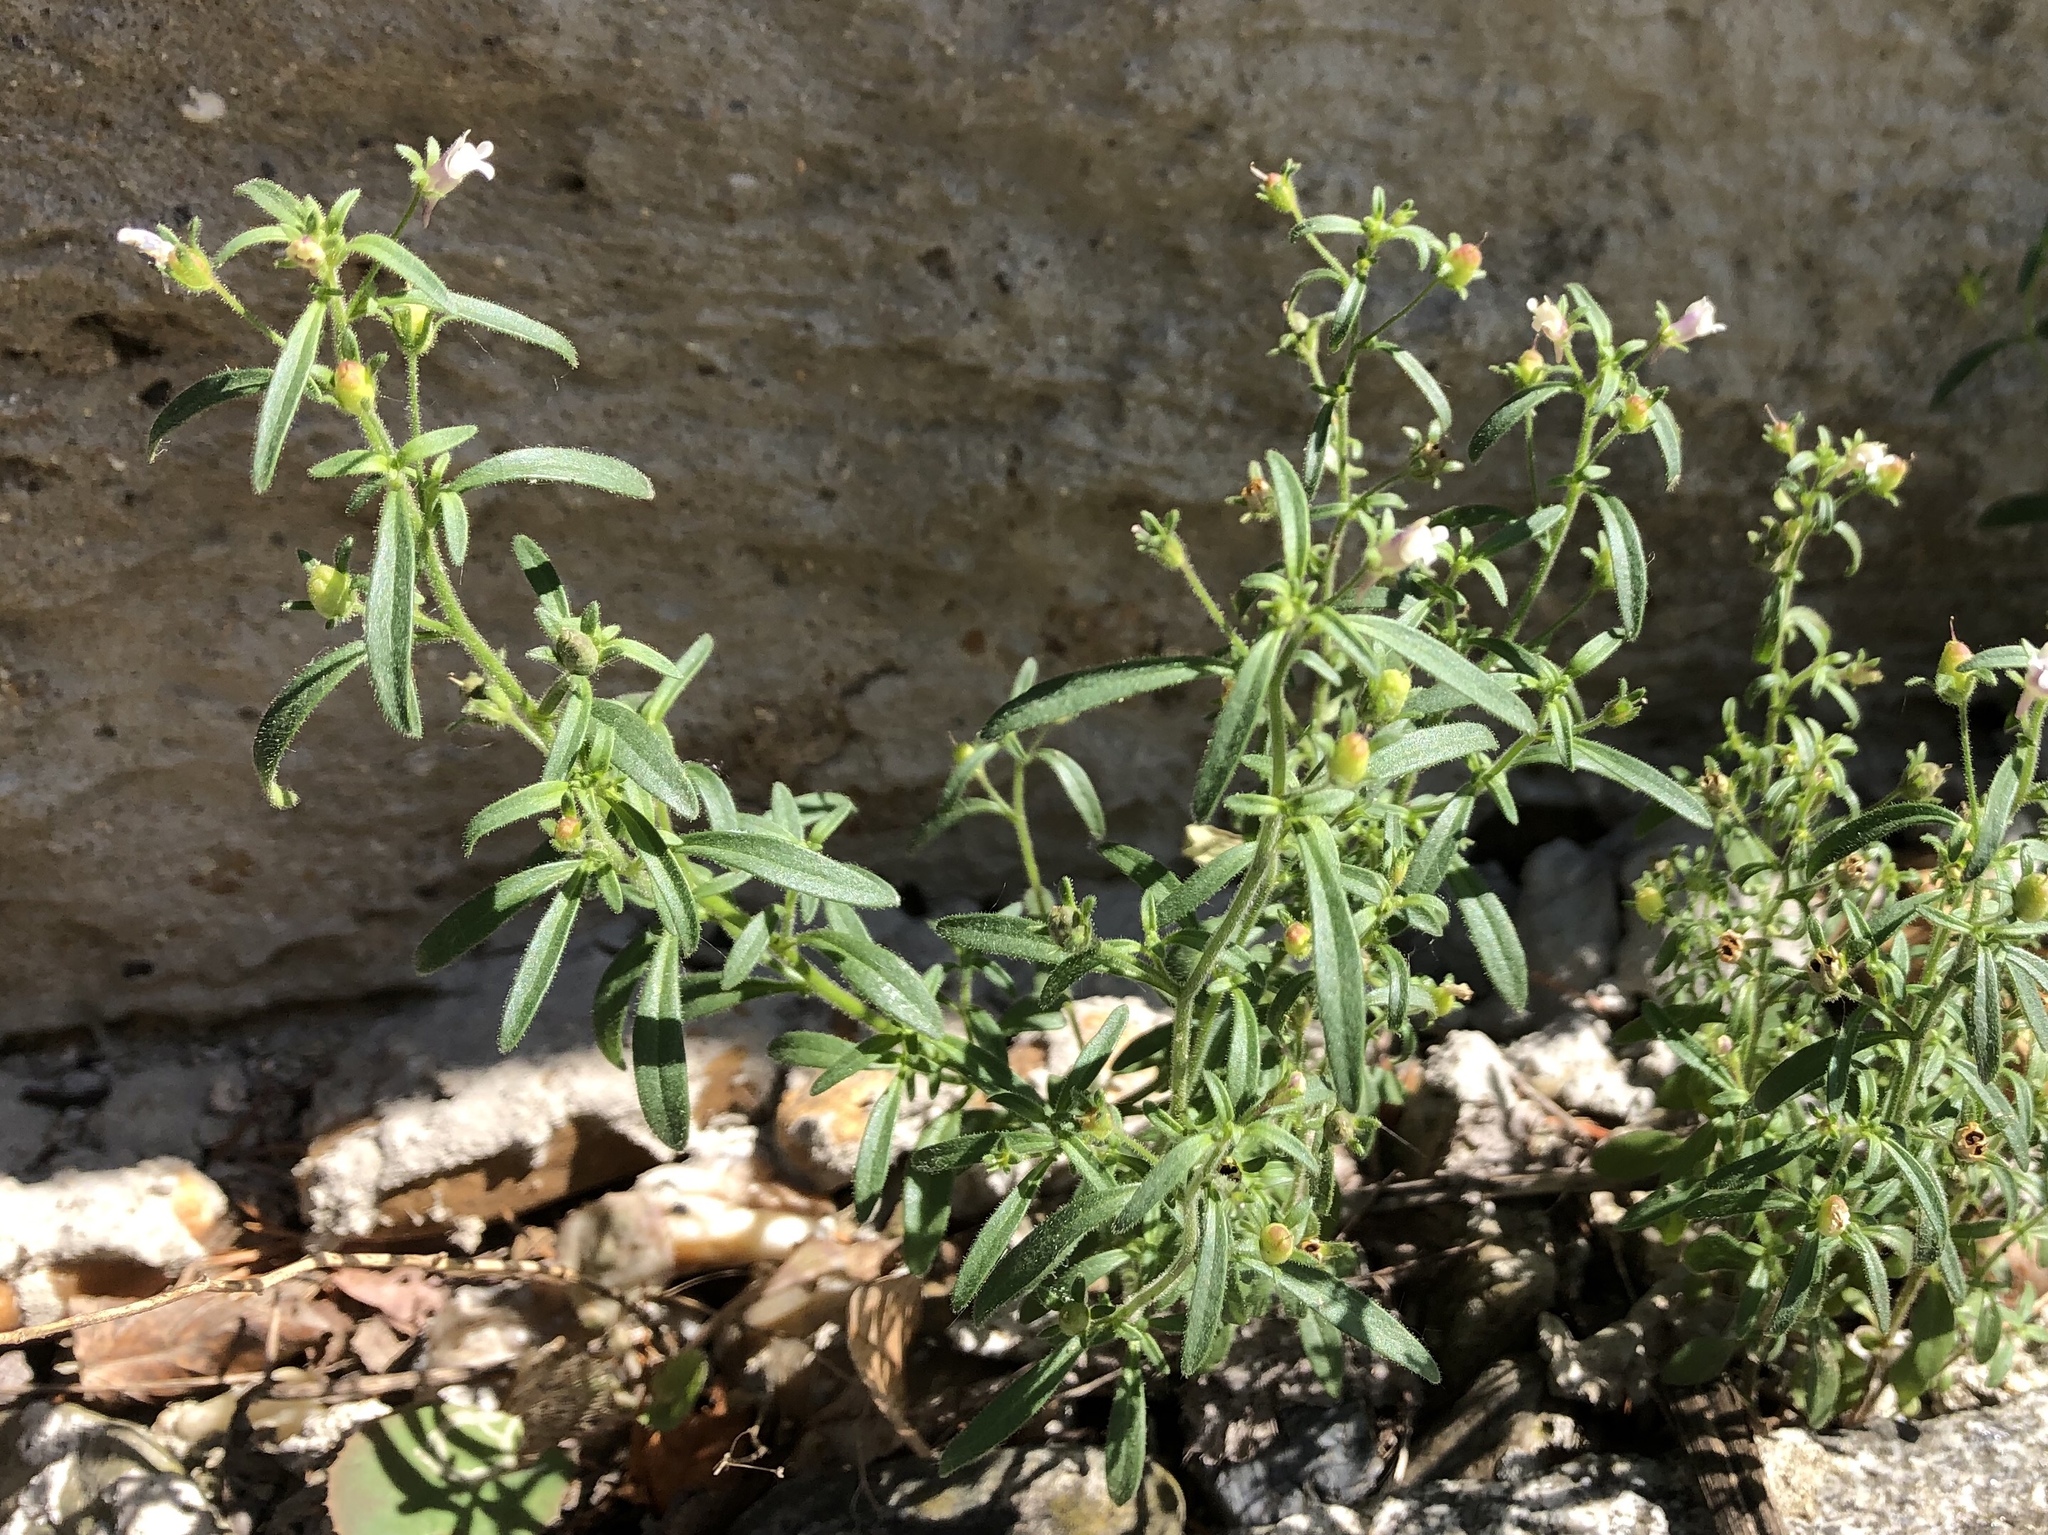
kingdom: Plantae
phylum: Tracheophyta
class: Magnoliopsida
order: Lamiales
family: Plantaginaceae
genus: Chaenorhinum
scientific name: Chaenorhinum minus
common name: Dwarf snapdragon
